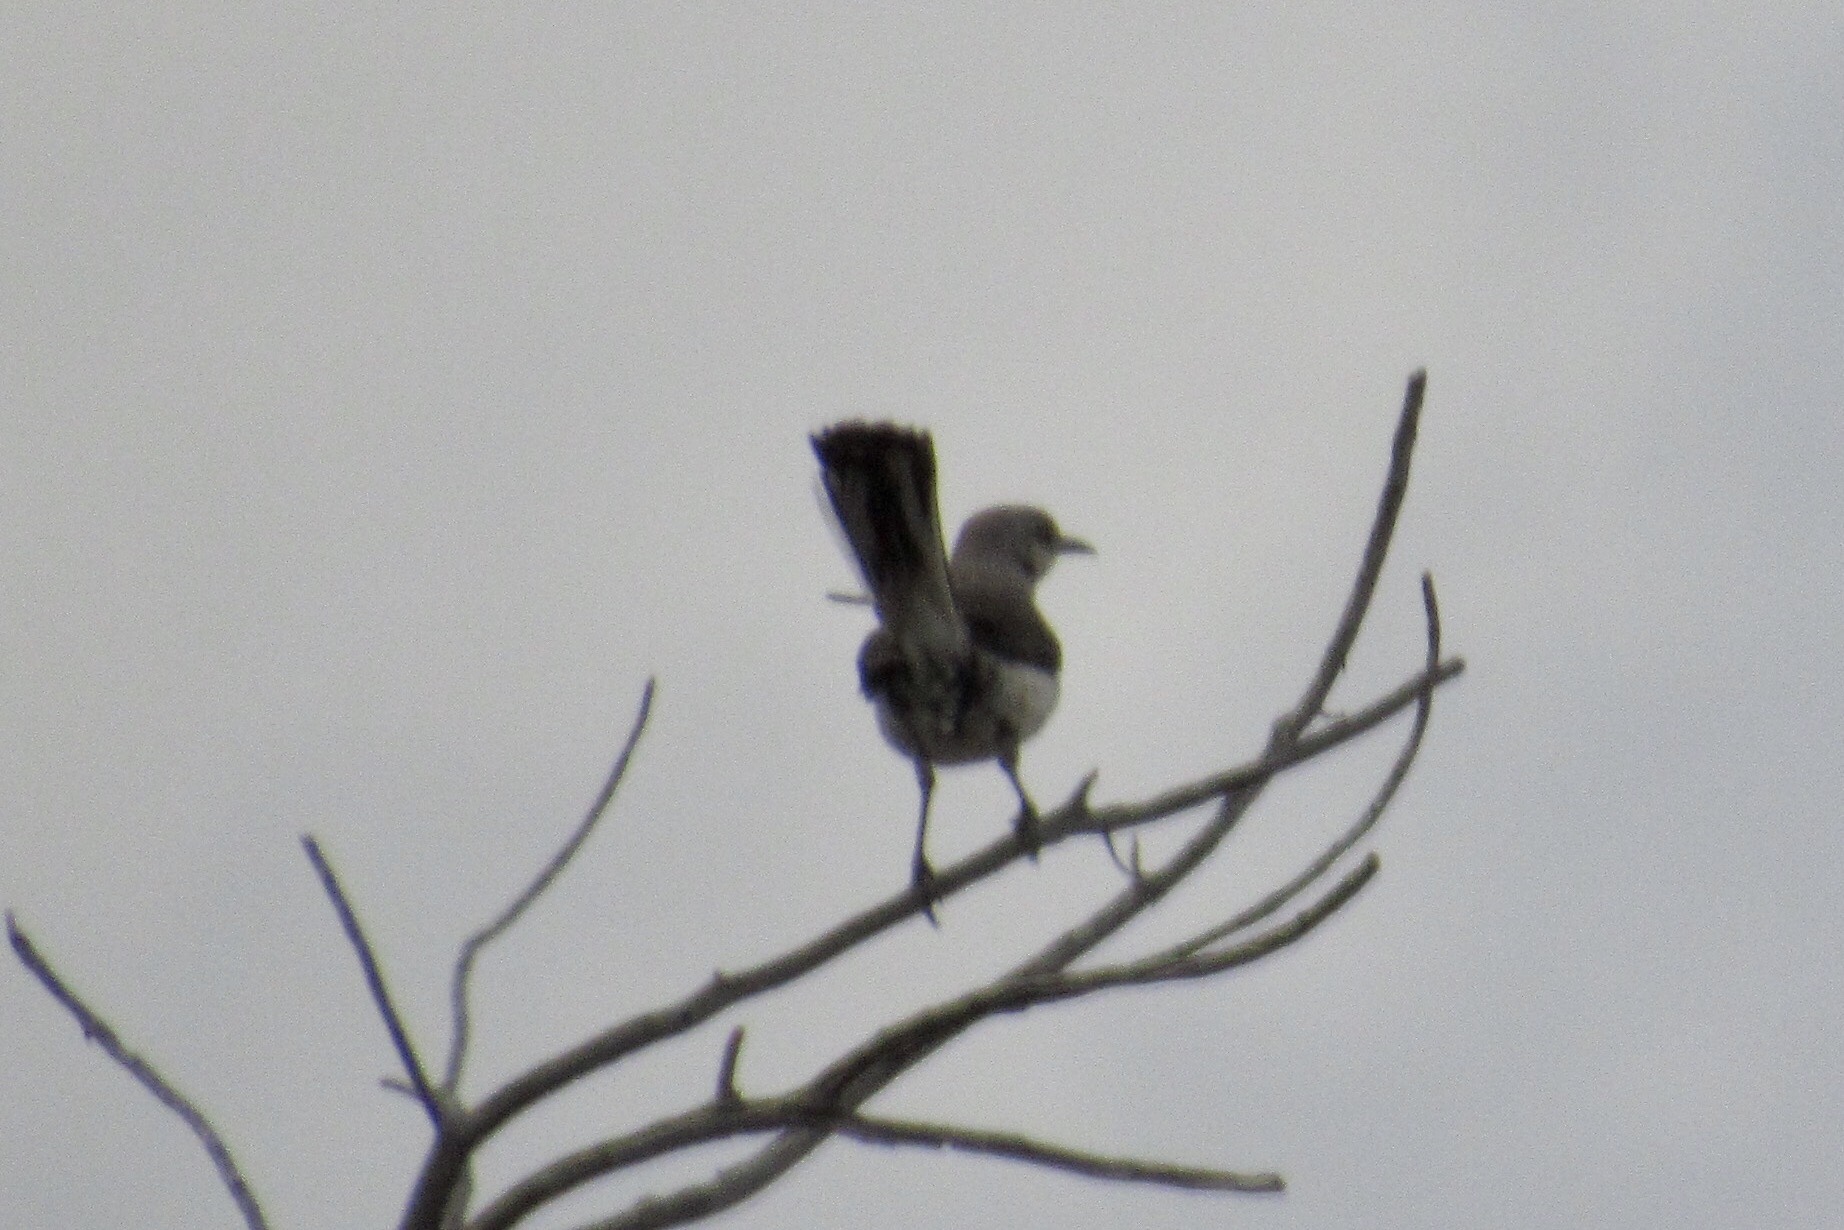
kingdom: Animalia
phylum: Chordata
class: Aves
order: Passeriformes
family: Mimidae
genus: Mimus
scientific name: Mimus polyglottos
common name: Northern mockingbird
